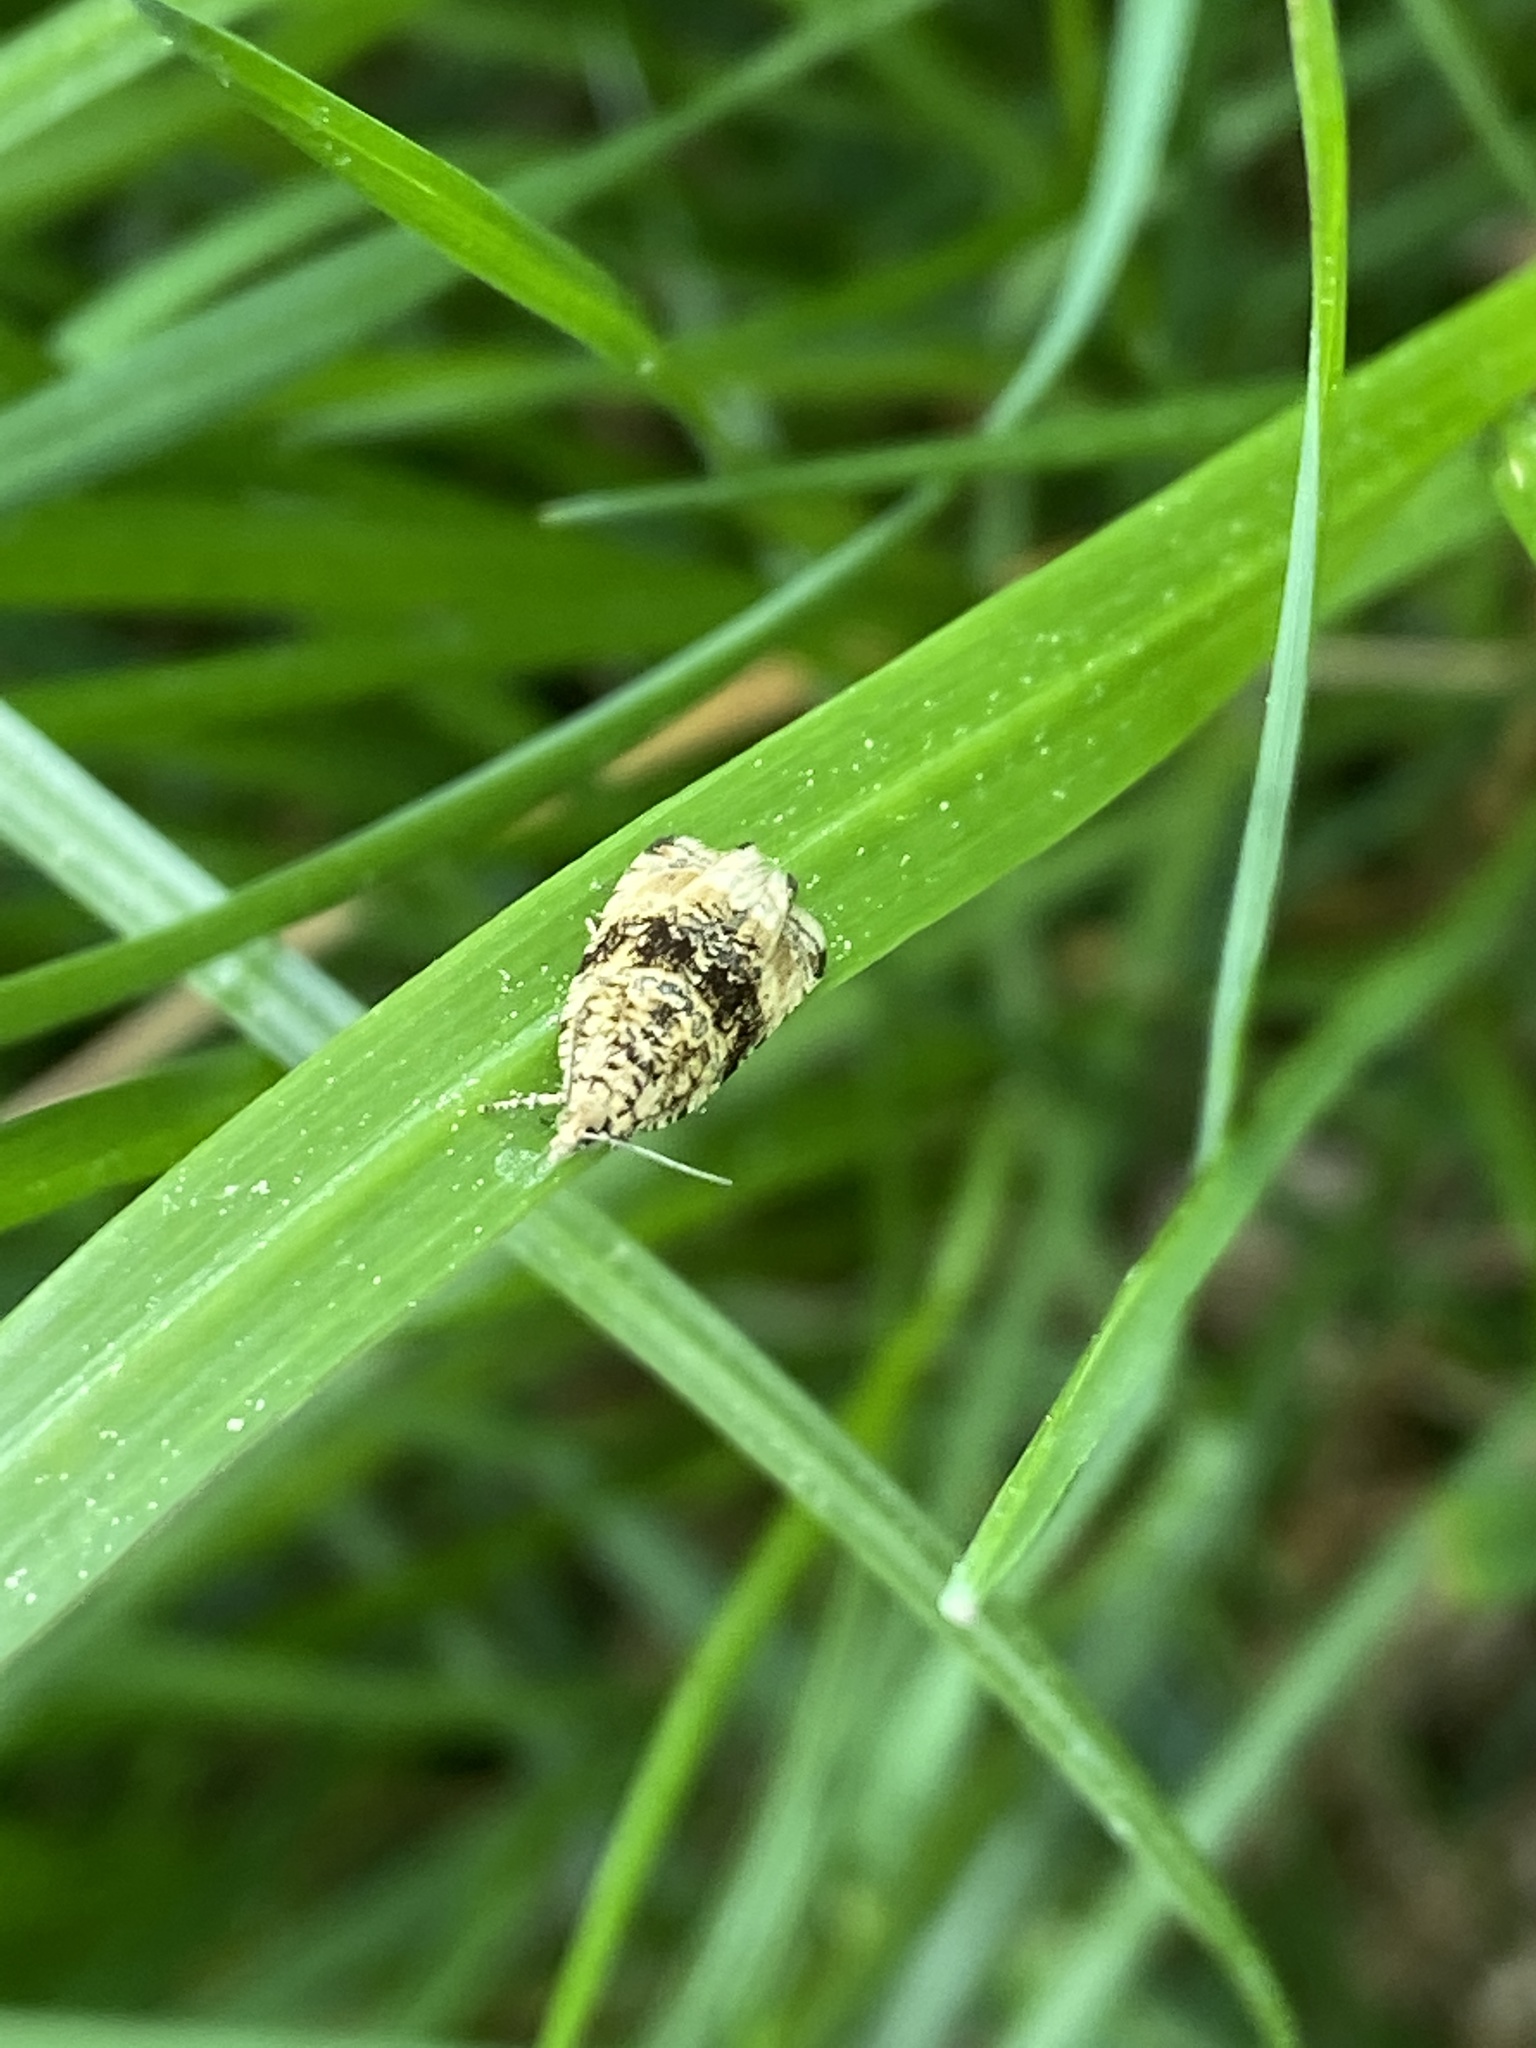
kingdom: Animalia
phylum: Arthropoda
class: Insecta
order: Lepidoptera
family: Tortricidae
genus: Syricoris
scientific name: Syricoris lacunana
